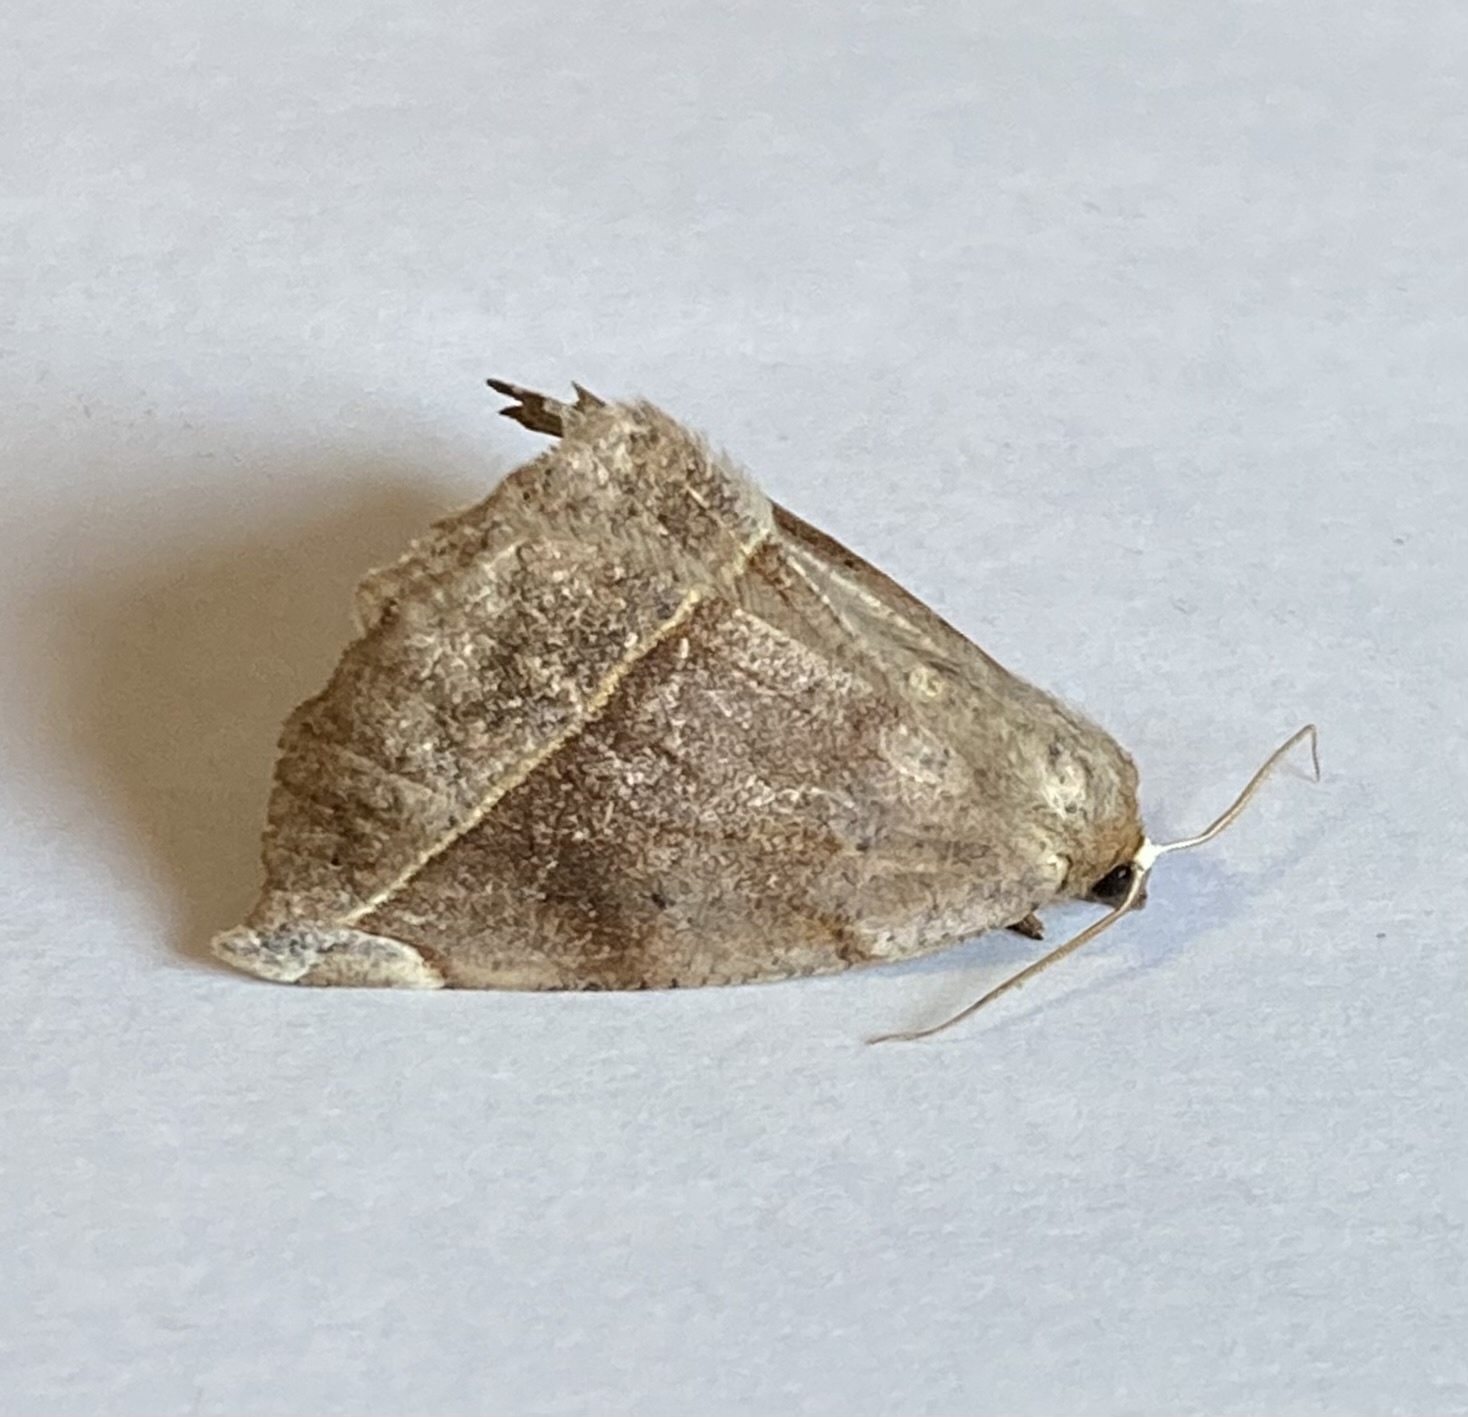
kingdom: Animalia
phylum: Arthropoda
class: Insecta
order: Lepidoptera
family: Geometridae
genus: Eutrapela
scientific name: Eutrapela clemataria
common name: Curved-toothed geometer
